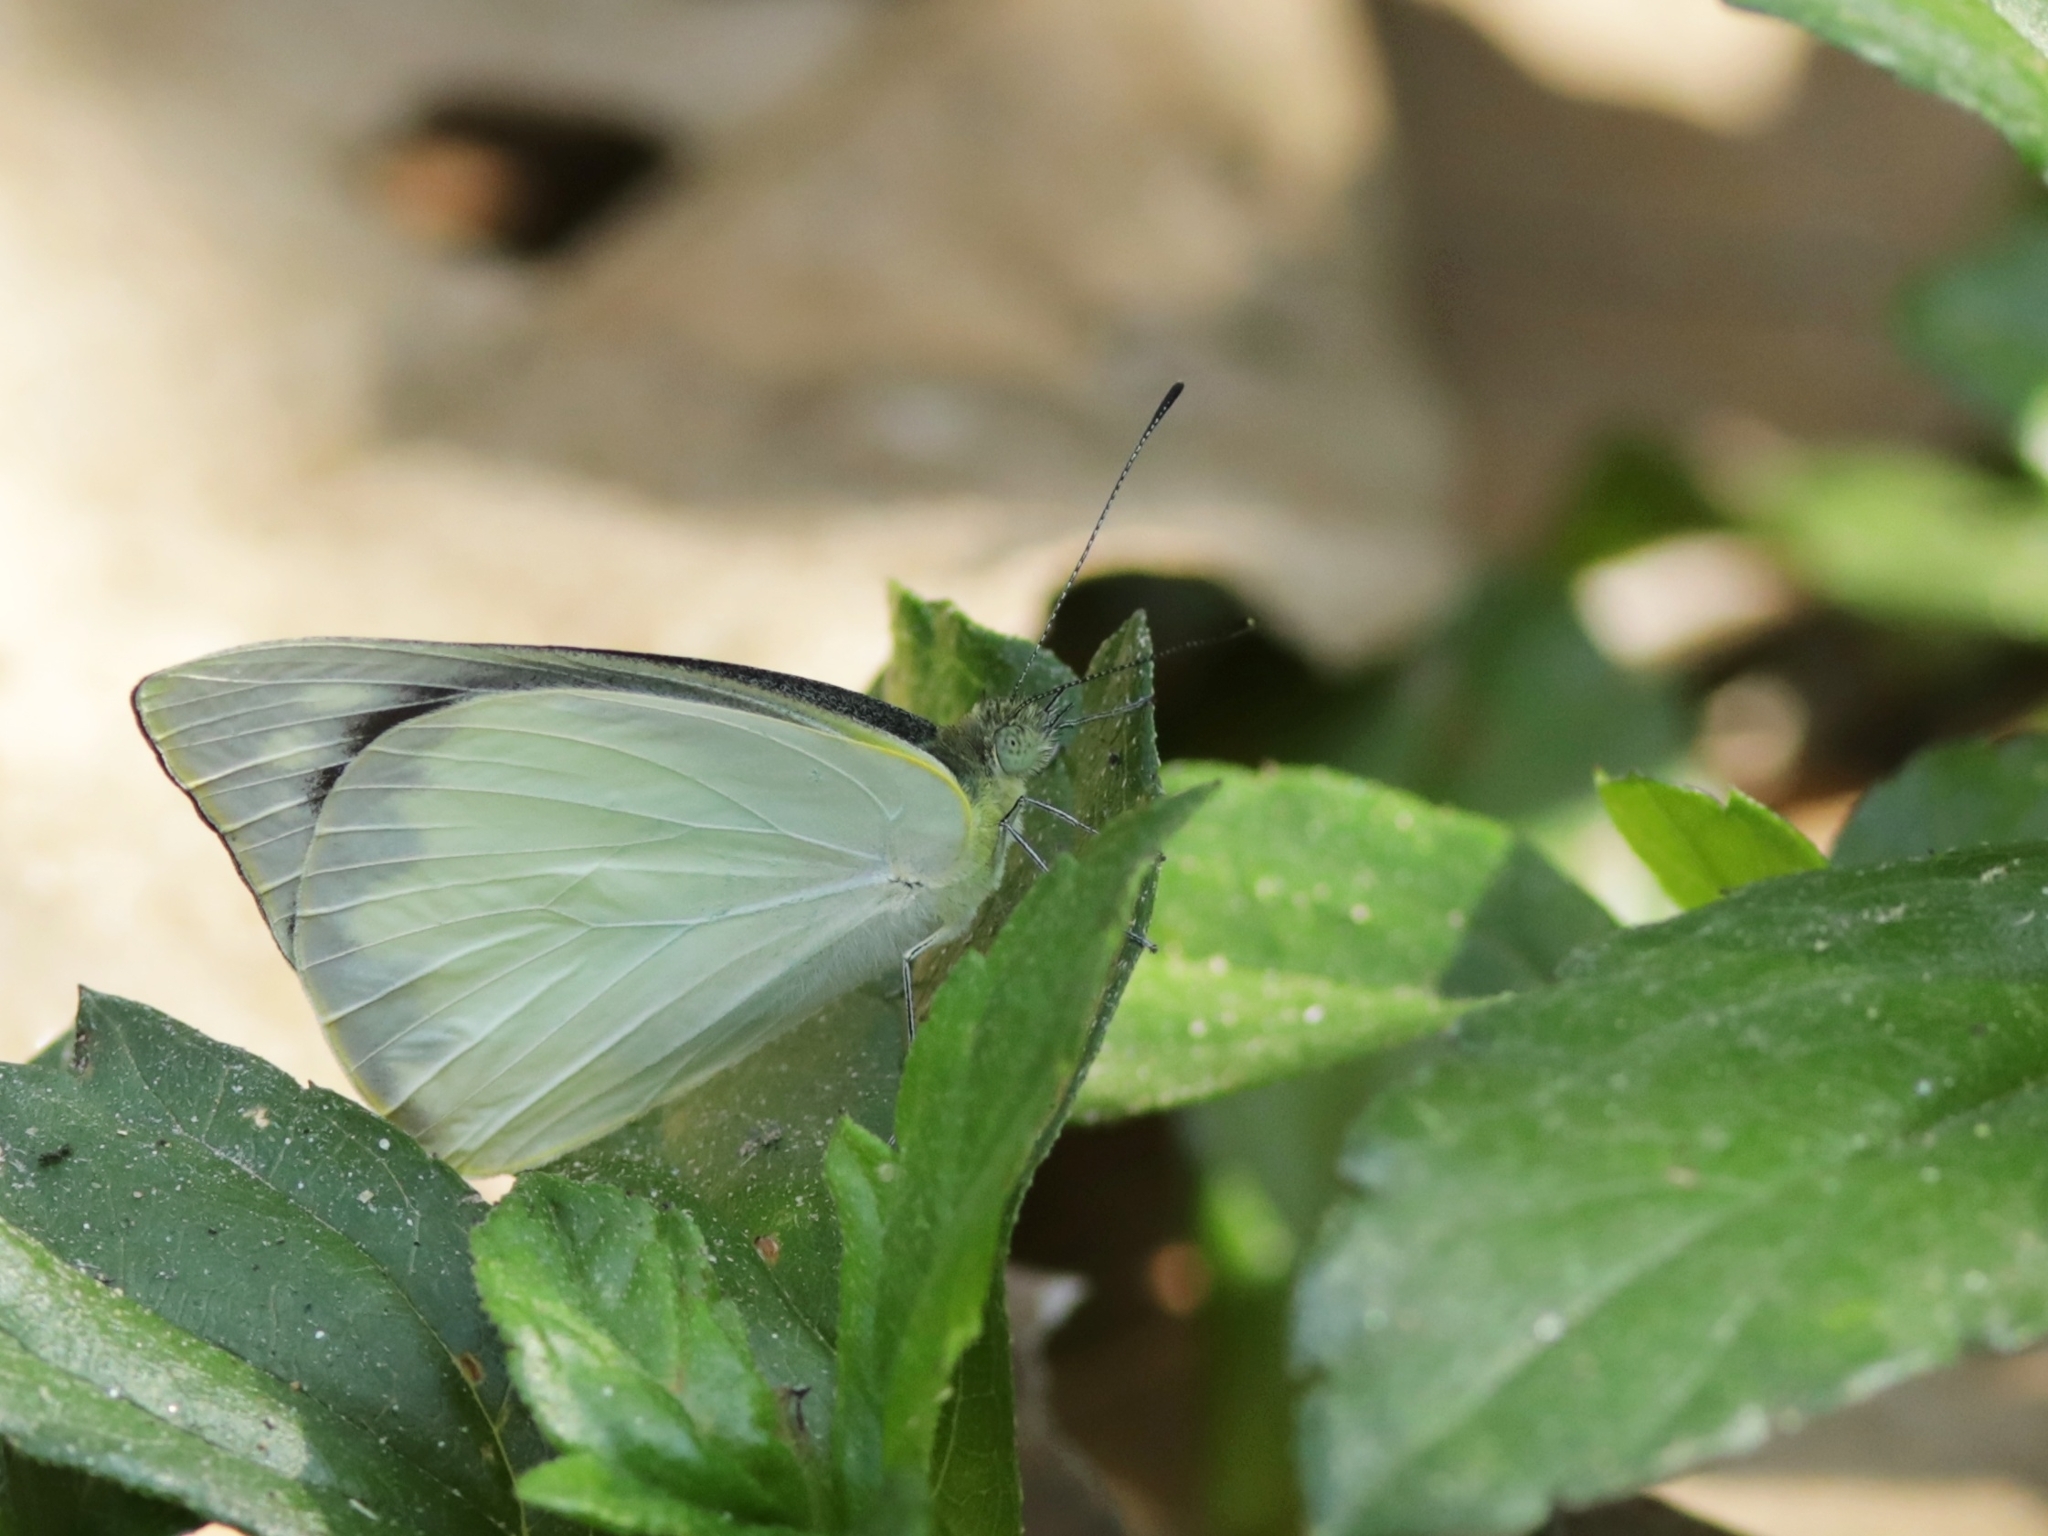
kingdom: Animalia
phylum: Arthropoda
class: Insecta
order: Lepidoptera
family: Pieridae
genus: Appias
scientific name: Appias albina
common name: Common albatross
